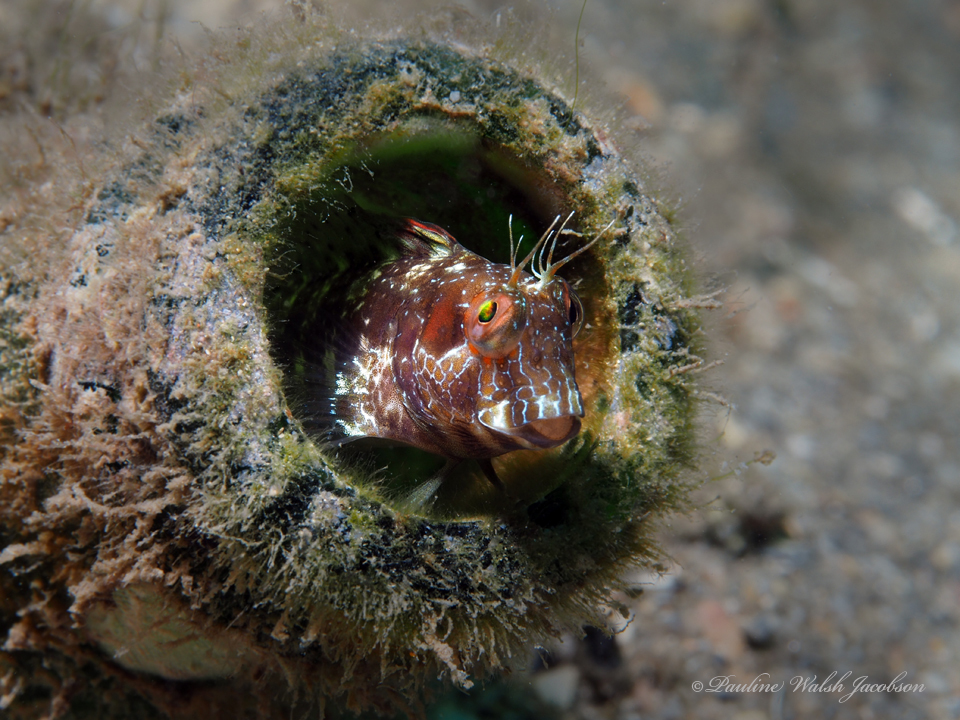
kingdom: Animalia
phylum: Chordata
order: Perciformes
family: Blenniidae
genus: Parablennius
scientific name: Parablennius marmoreus
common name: Seaweed blenny
